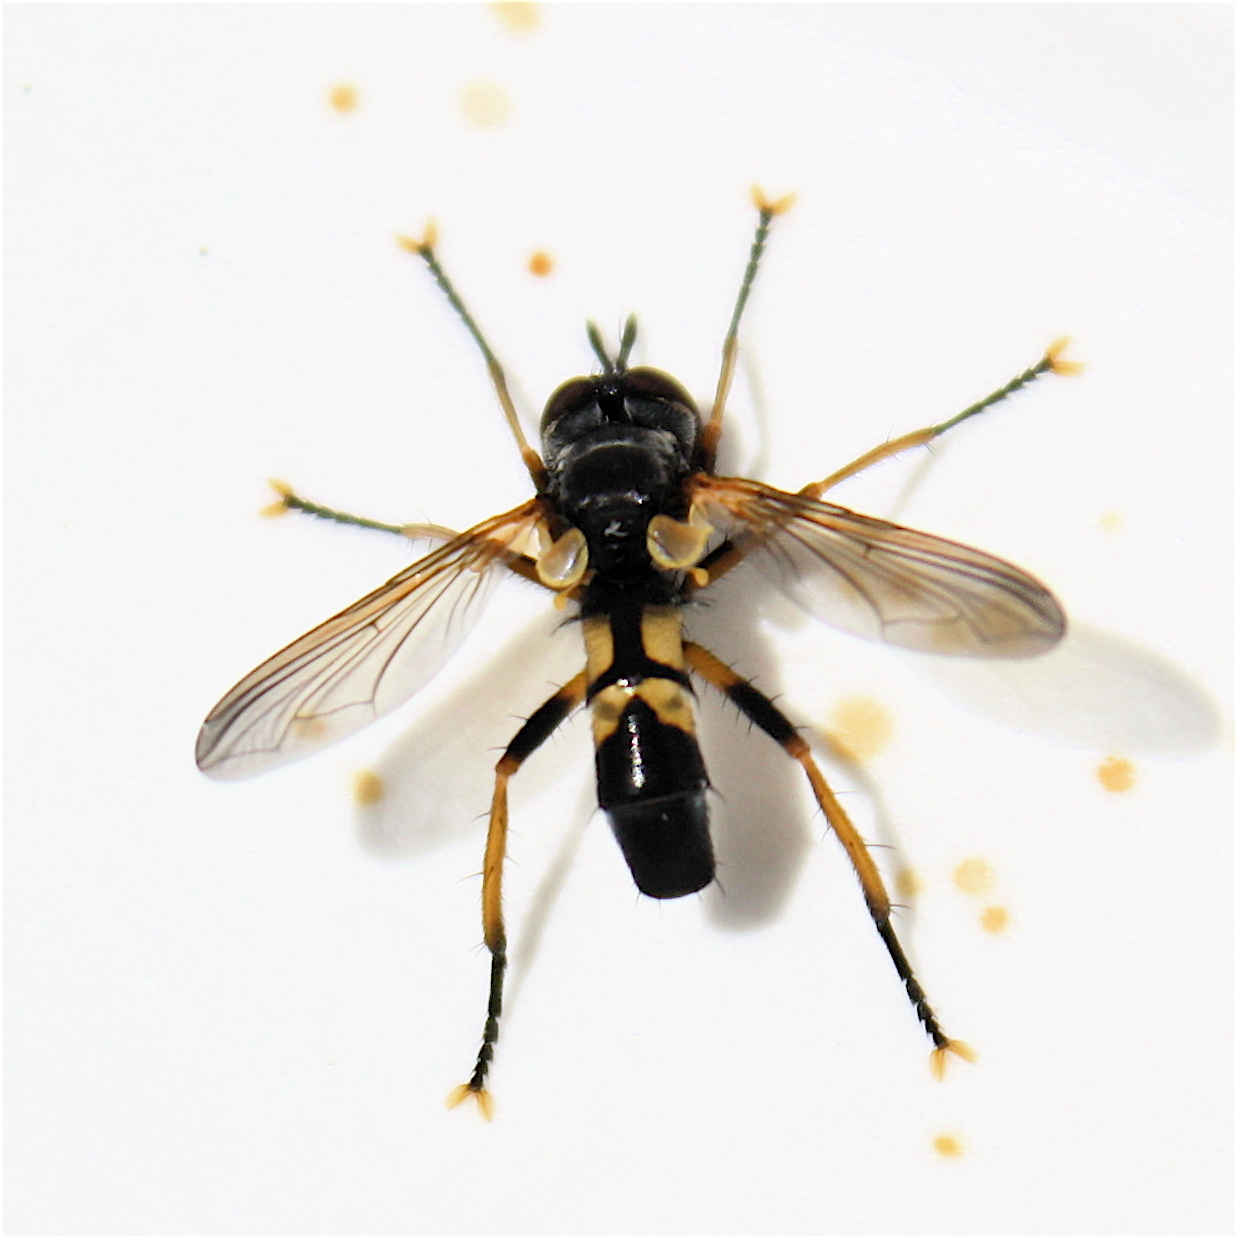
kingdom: Animalia
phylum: Arthropoda
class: Insecta
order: Diptera
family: Tachinidae
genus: Hemyda
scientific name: Hemyda aurata
